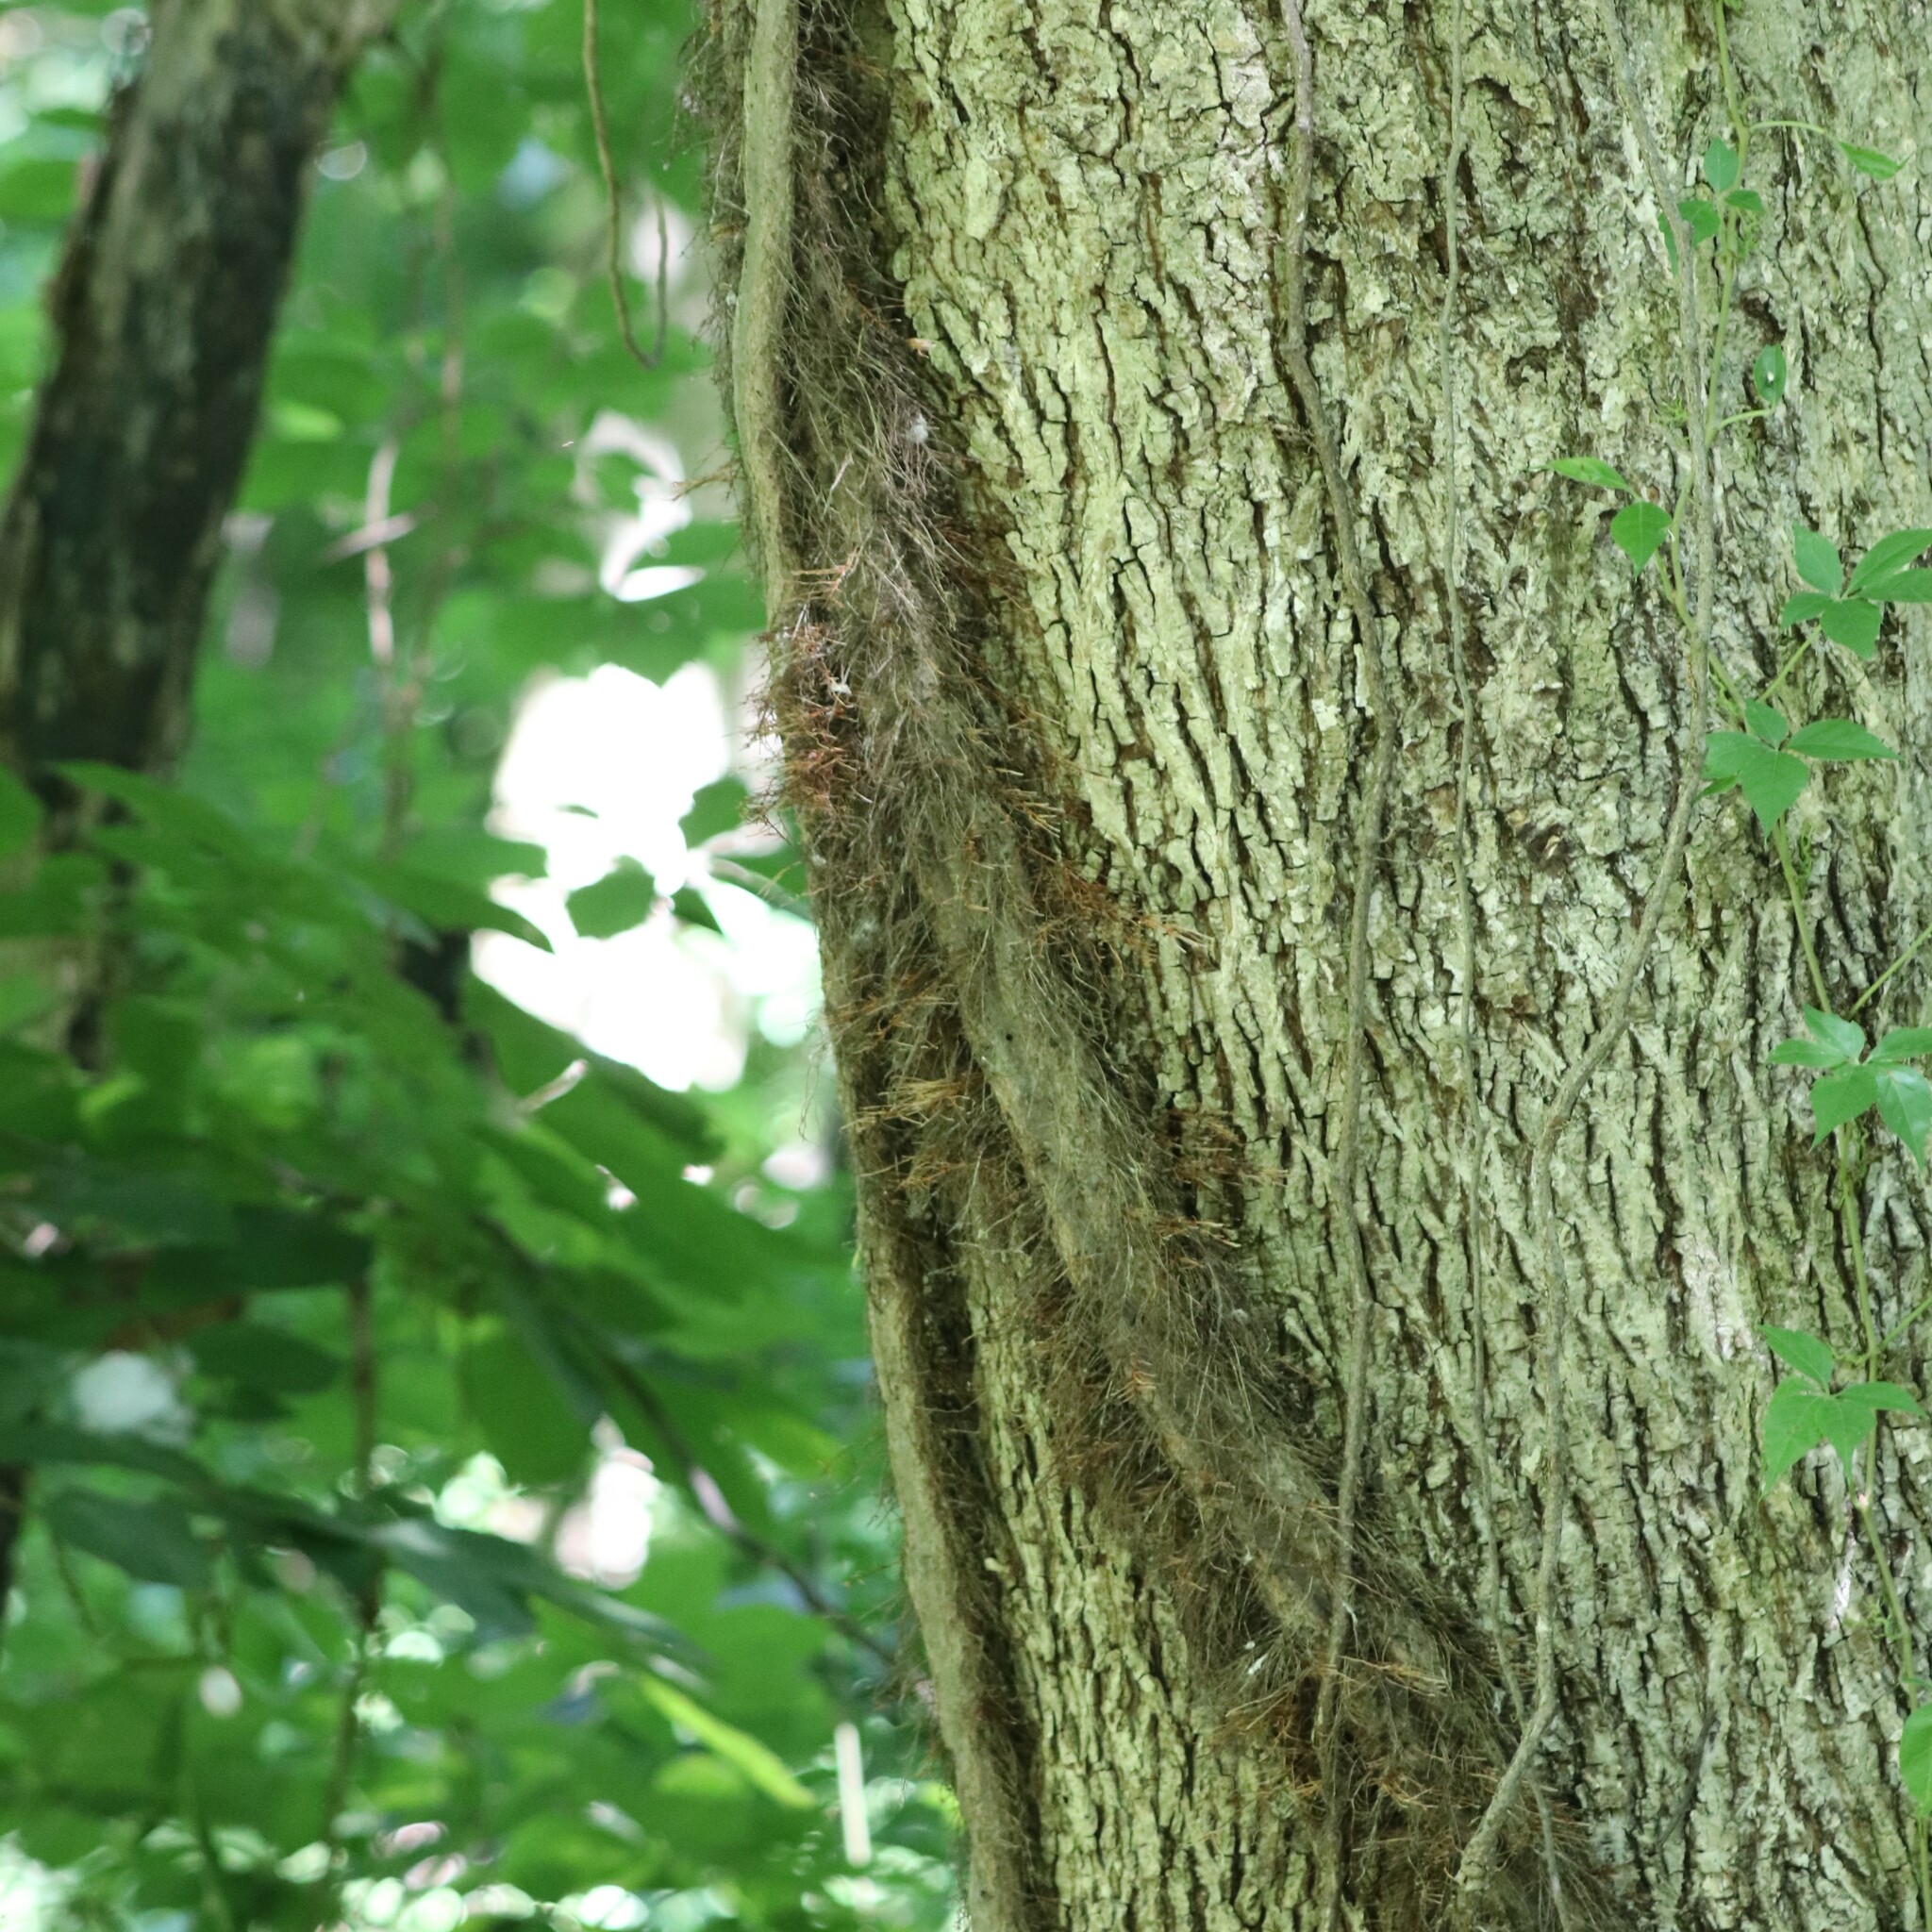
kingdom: Plantae
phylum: Tracheophyta
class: Magnoliopsida
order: Sapindales
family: Anacardiaceae
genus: Toxicodendron
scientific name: Toxicodendron radicans
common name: Poison ivy
